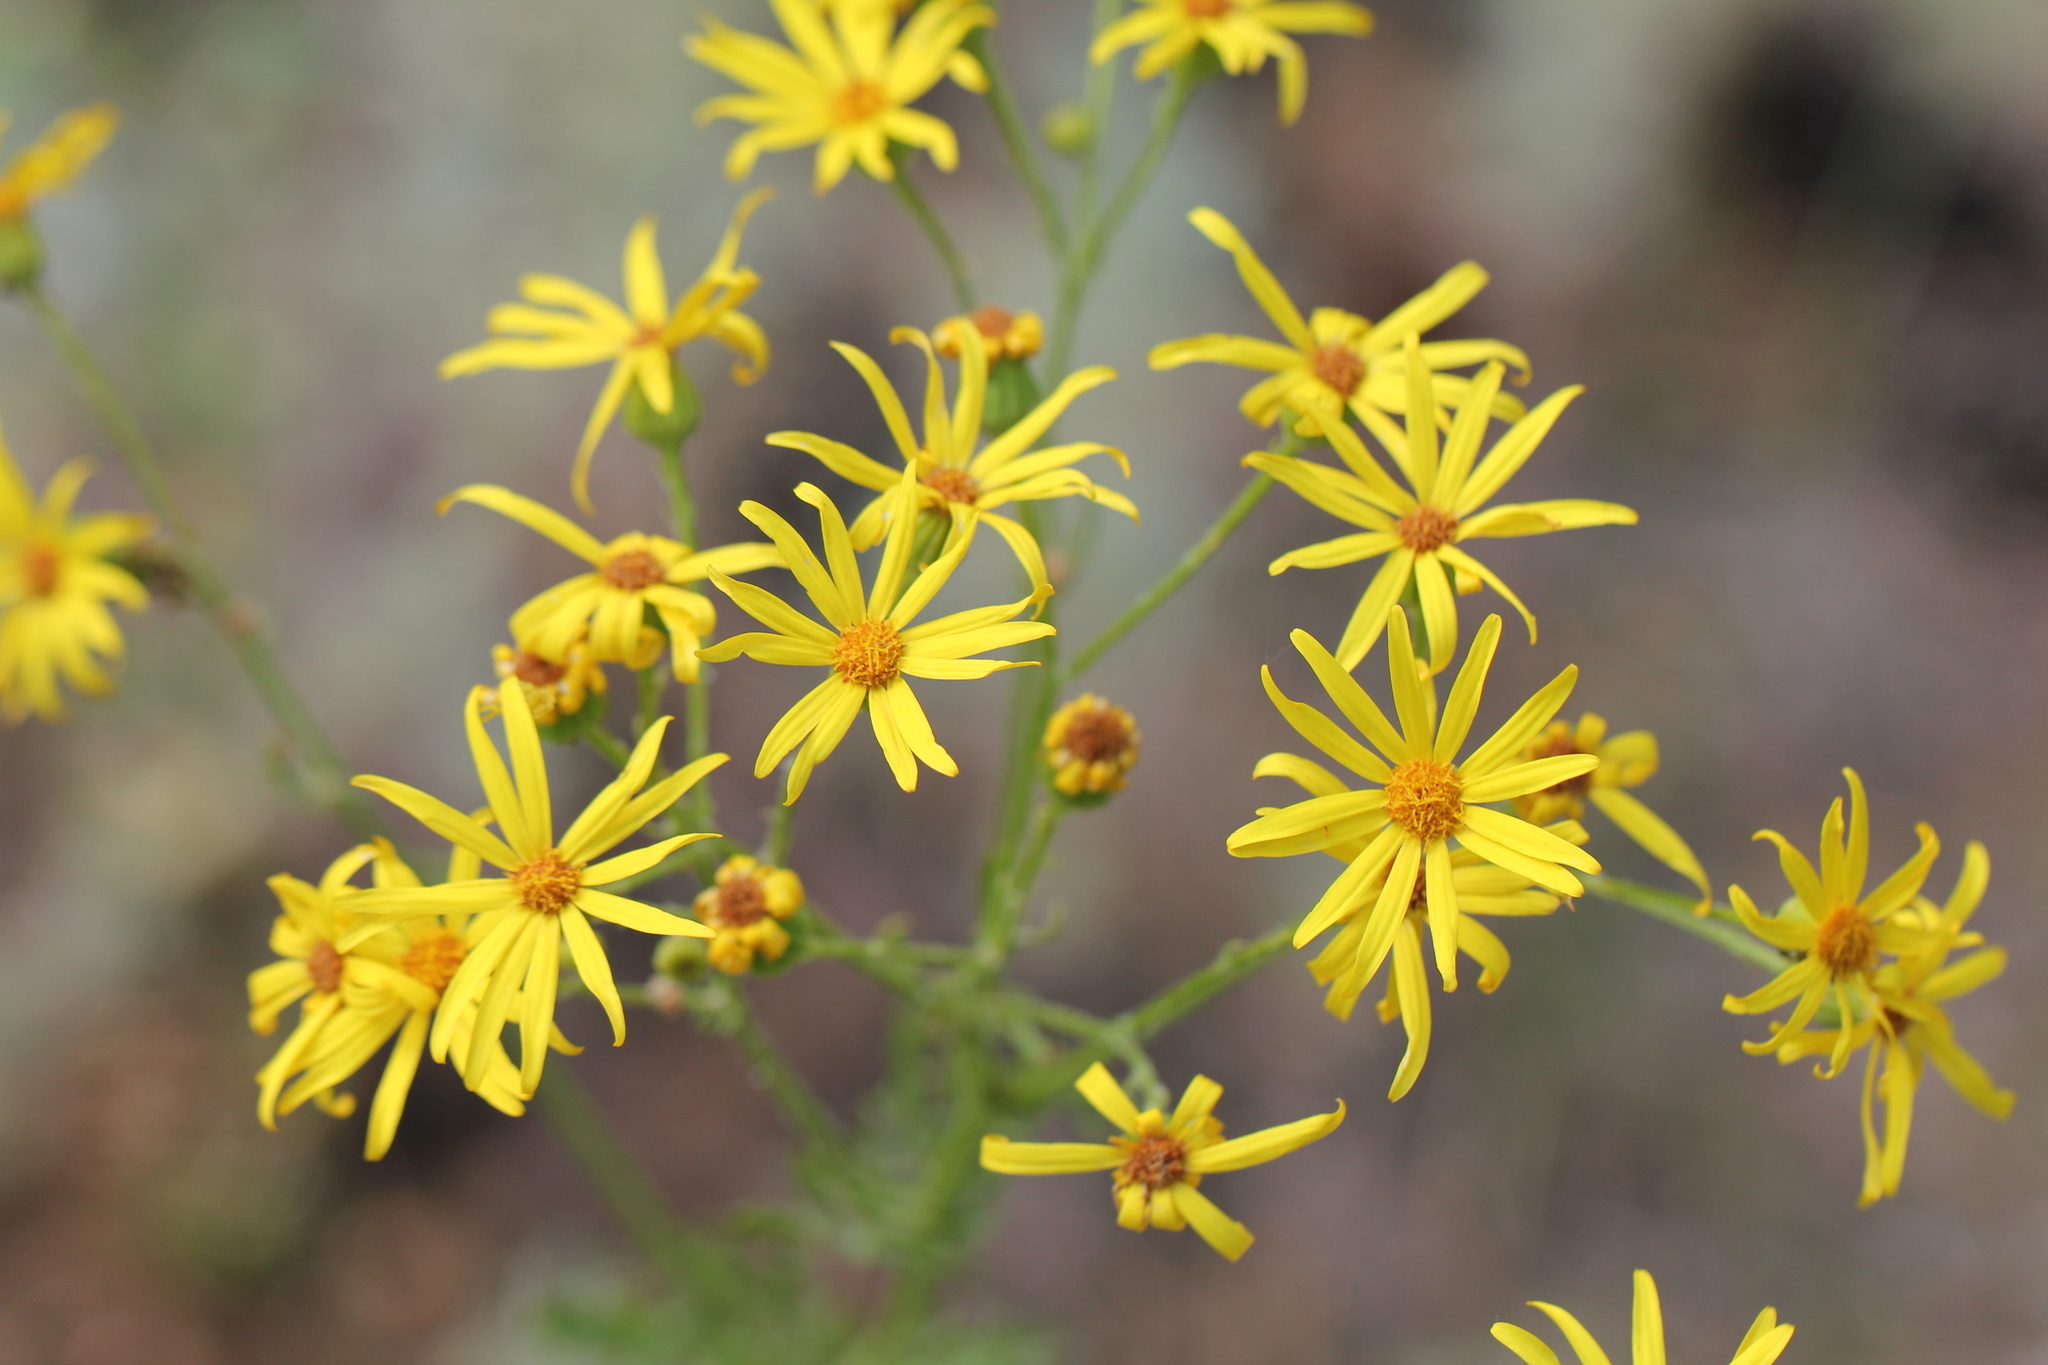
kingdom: Plantae
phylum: Tracheophyta
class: Magnoliopsida
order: Asterales
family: Asteraceae
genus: Jacobaea
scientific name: Jacobaea vulgaris
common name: Stinking willie
